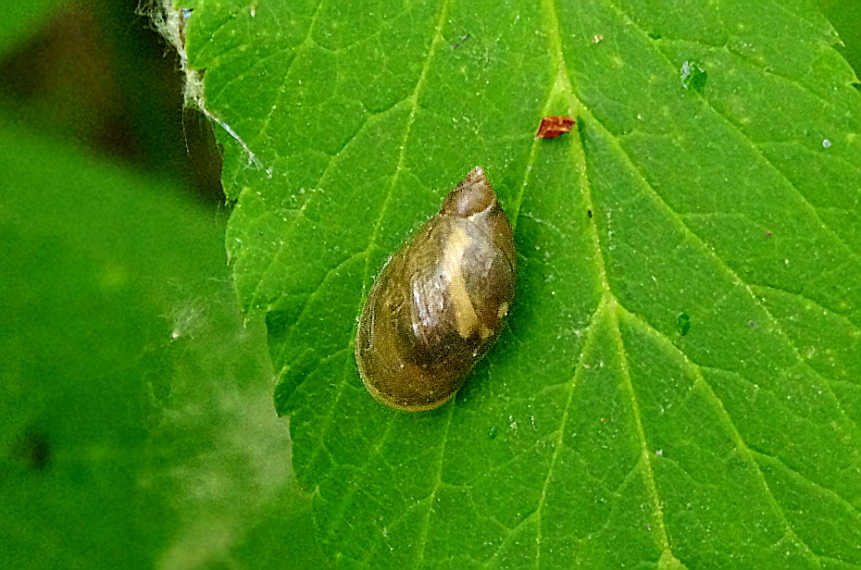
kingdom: Animalia
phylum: Mollusca
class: Gastropoda
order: Stylommatophora
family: Succineidae
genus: Succinea
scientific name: Succinea putris
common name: European ambersnail
